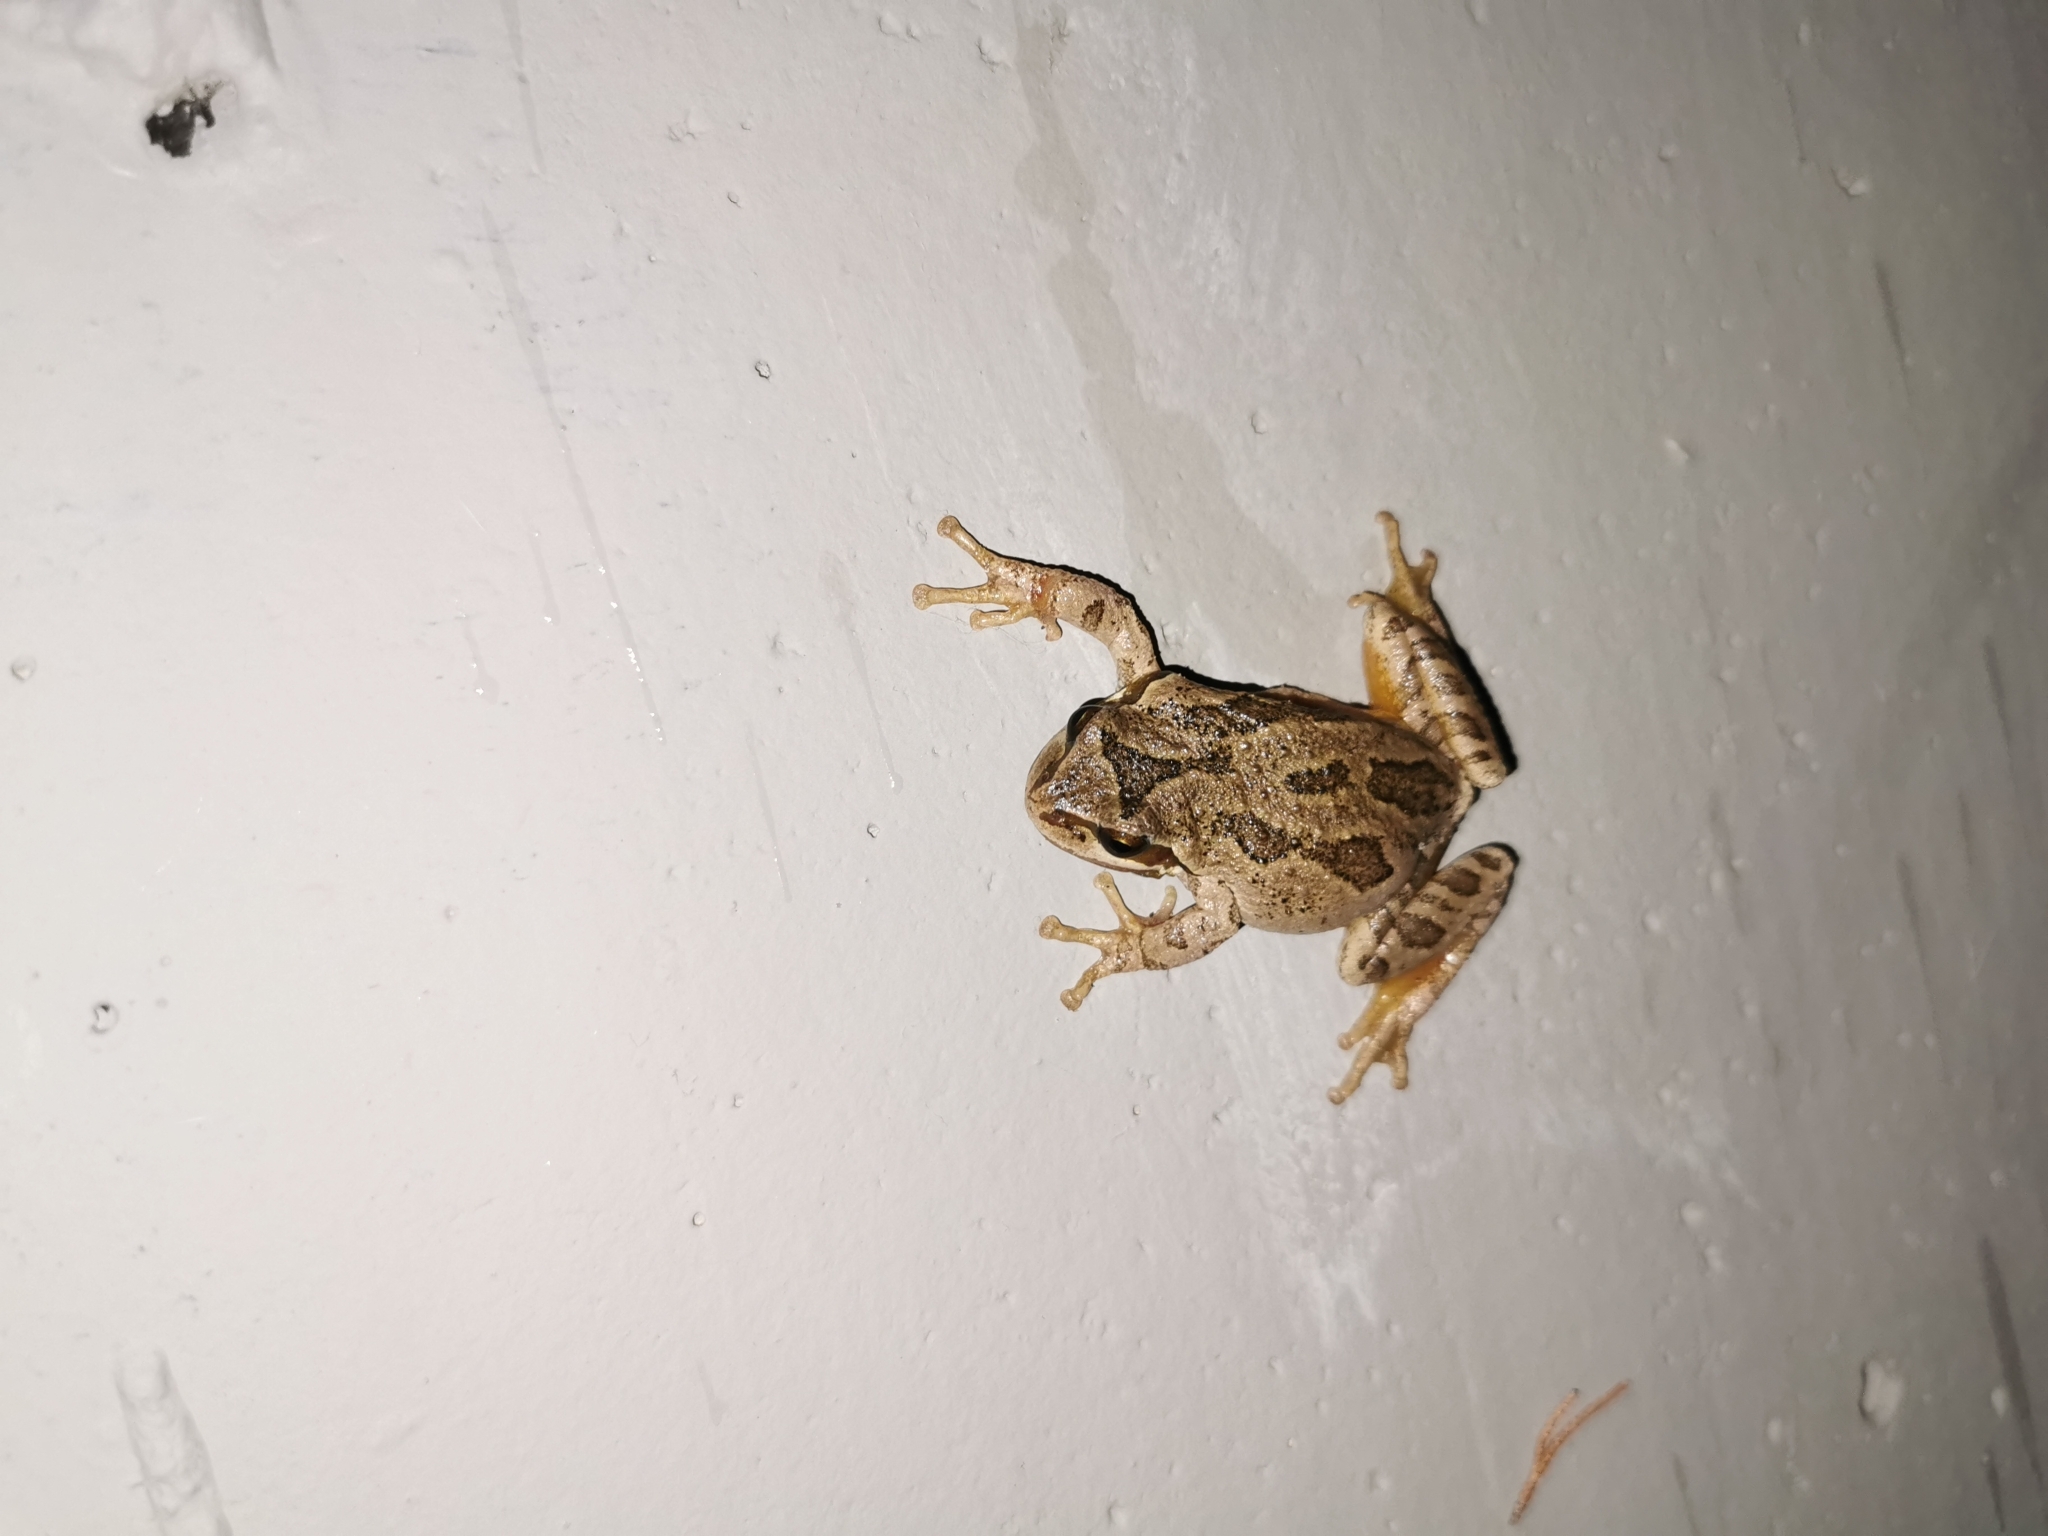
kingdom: Animalia
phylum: Chordata
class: Amphibia
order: Anura
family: Hylidae
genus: Pseudacris
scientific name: Pseudacris regilla
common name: Pacific chorus frog
